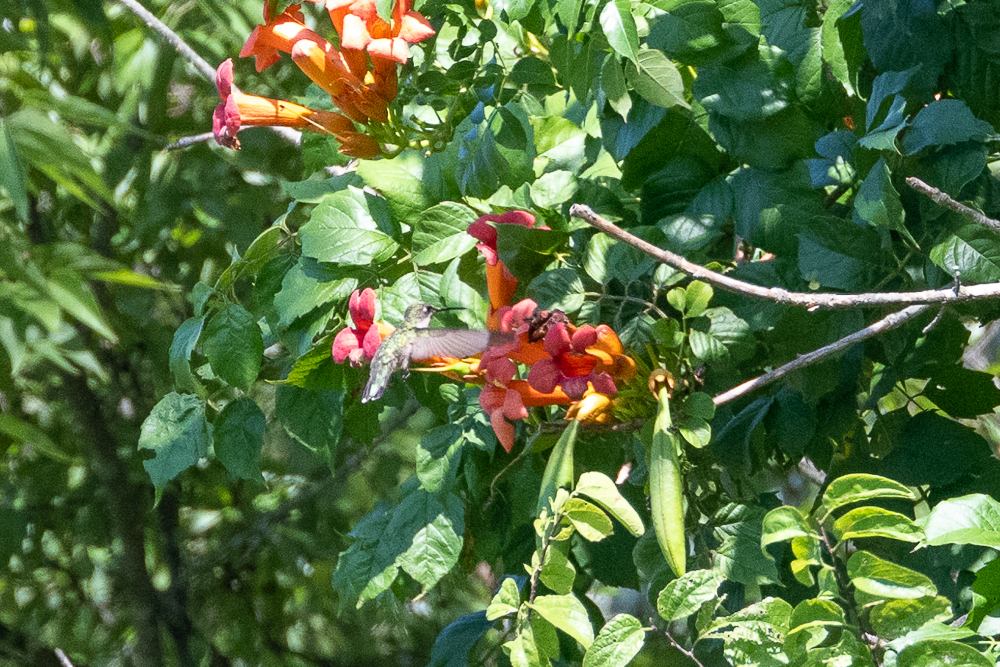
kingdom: Plantae
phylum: Tracheophyta
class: Magnoliopsida
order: Lamiales
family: Bignoniaceae
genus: Campsis
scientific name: Campsis radicans
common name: Trumpet-creeper
